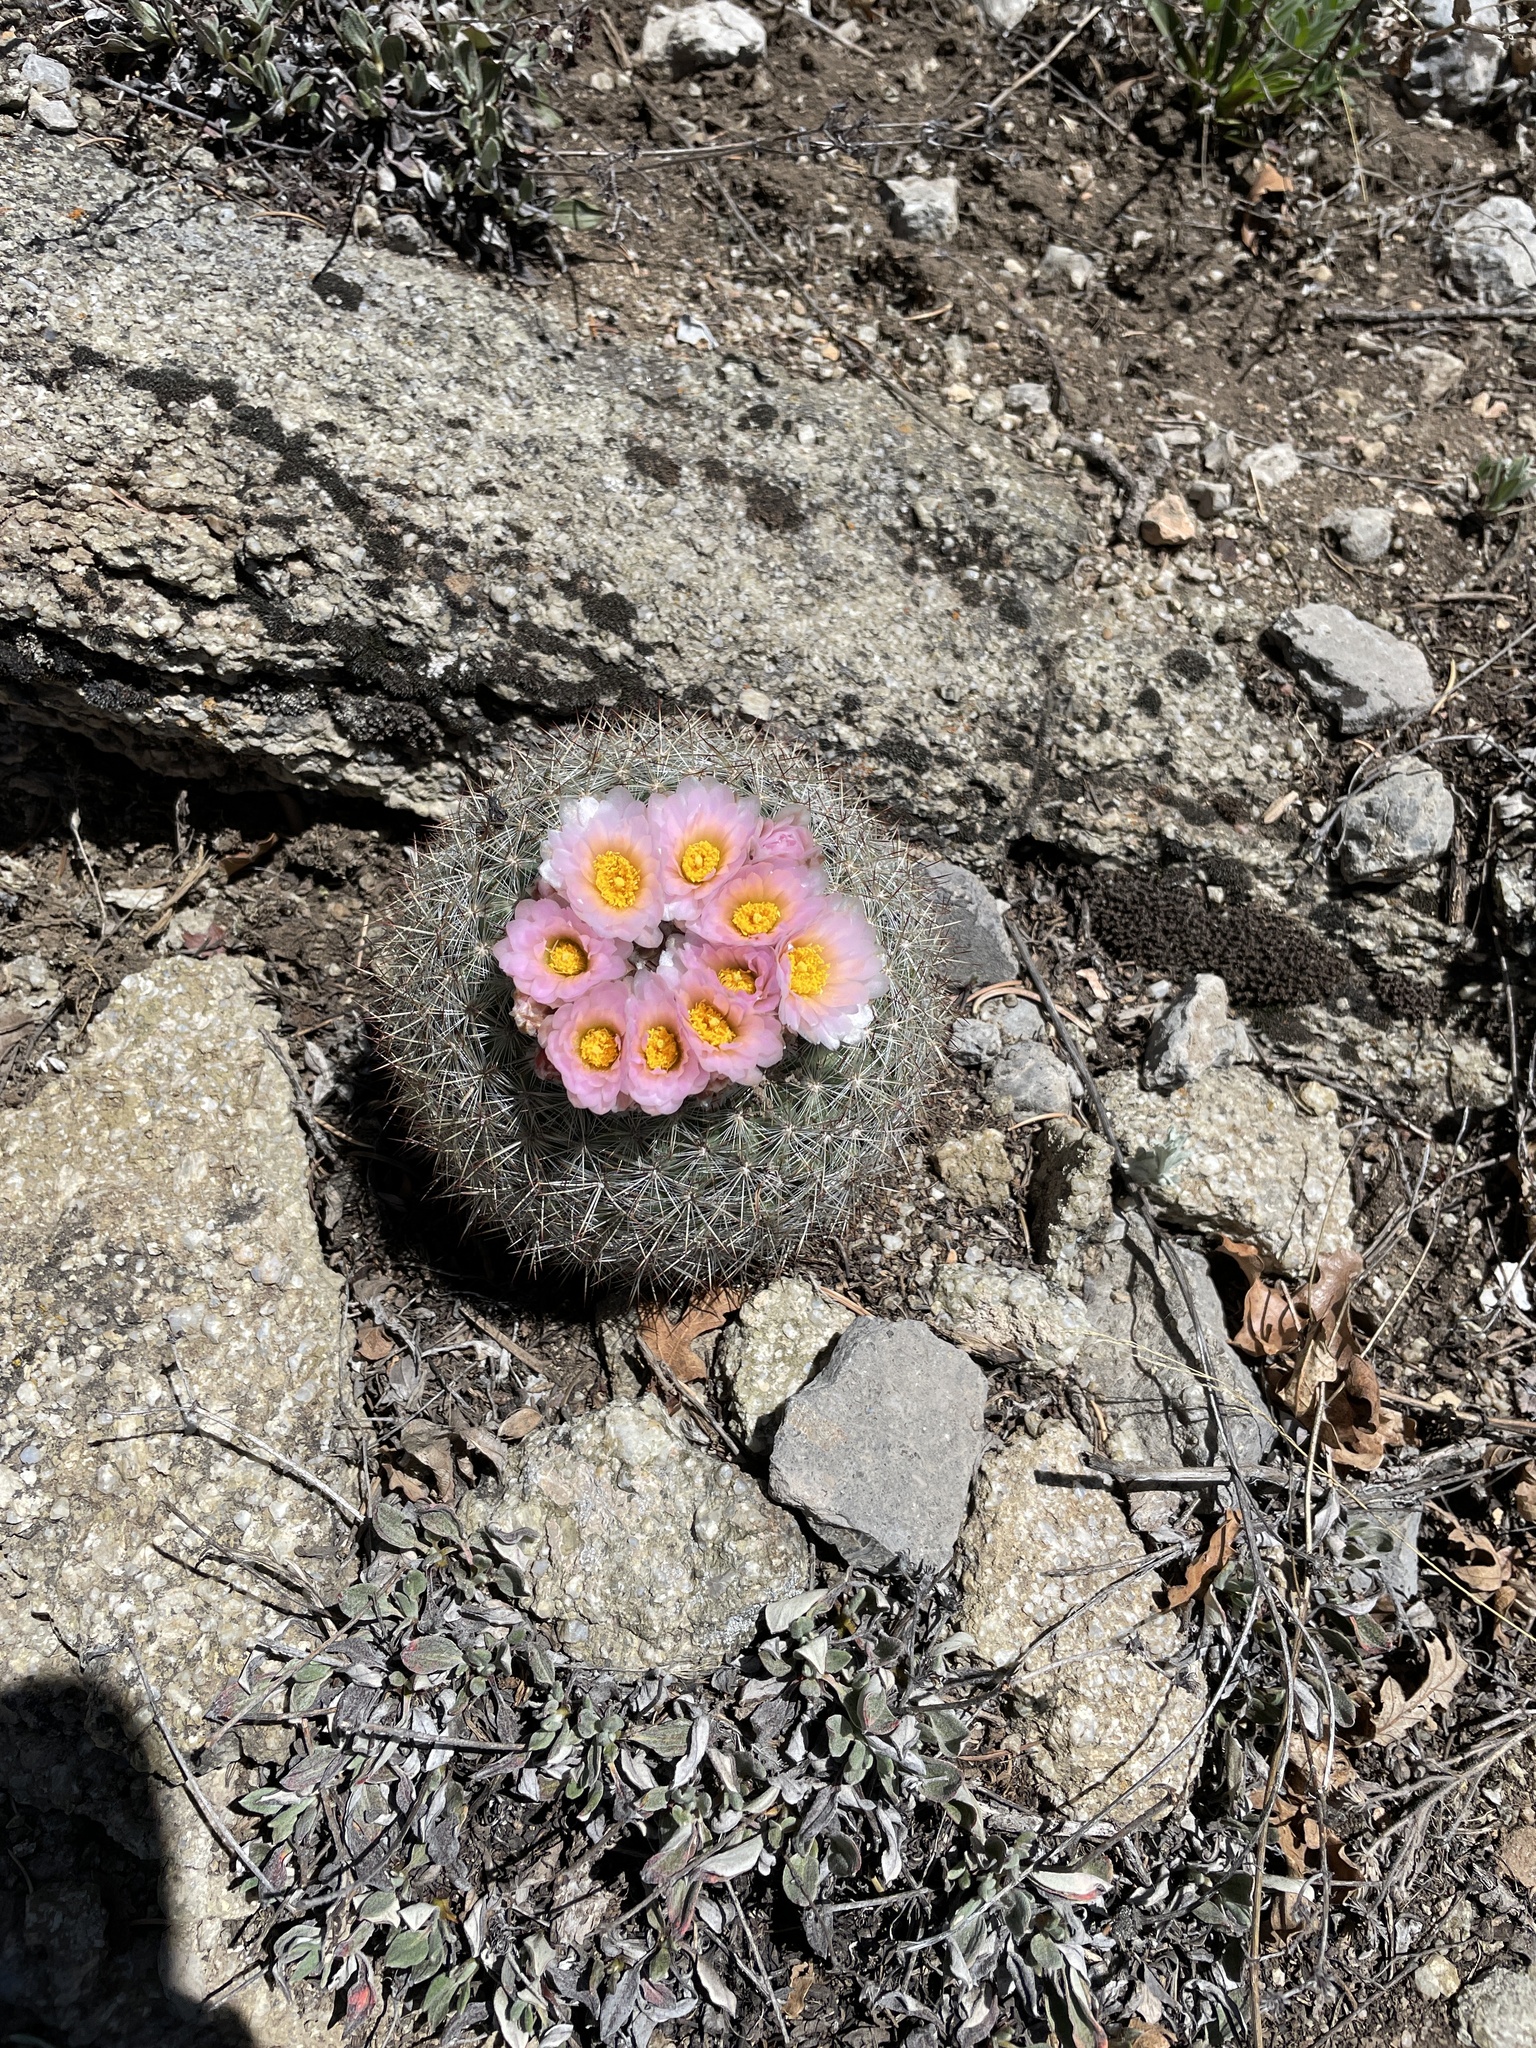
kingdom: Plantae
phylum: Tracheophyta
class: Magnoliopsida
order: Caryophyllales
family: Cactaceae
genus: Pediocactus
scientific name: Pediocactus simpsonii
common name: Simpson's hedgehog cactus
